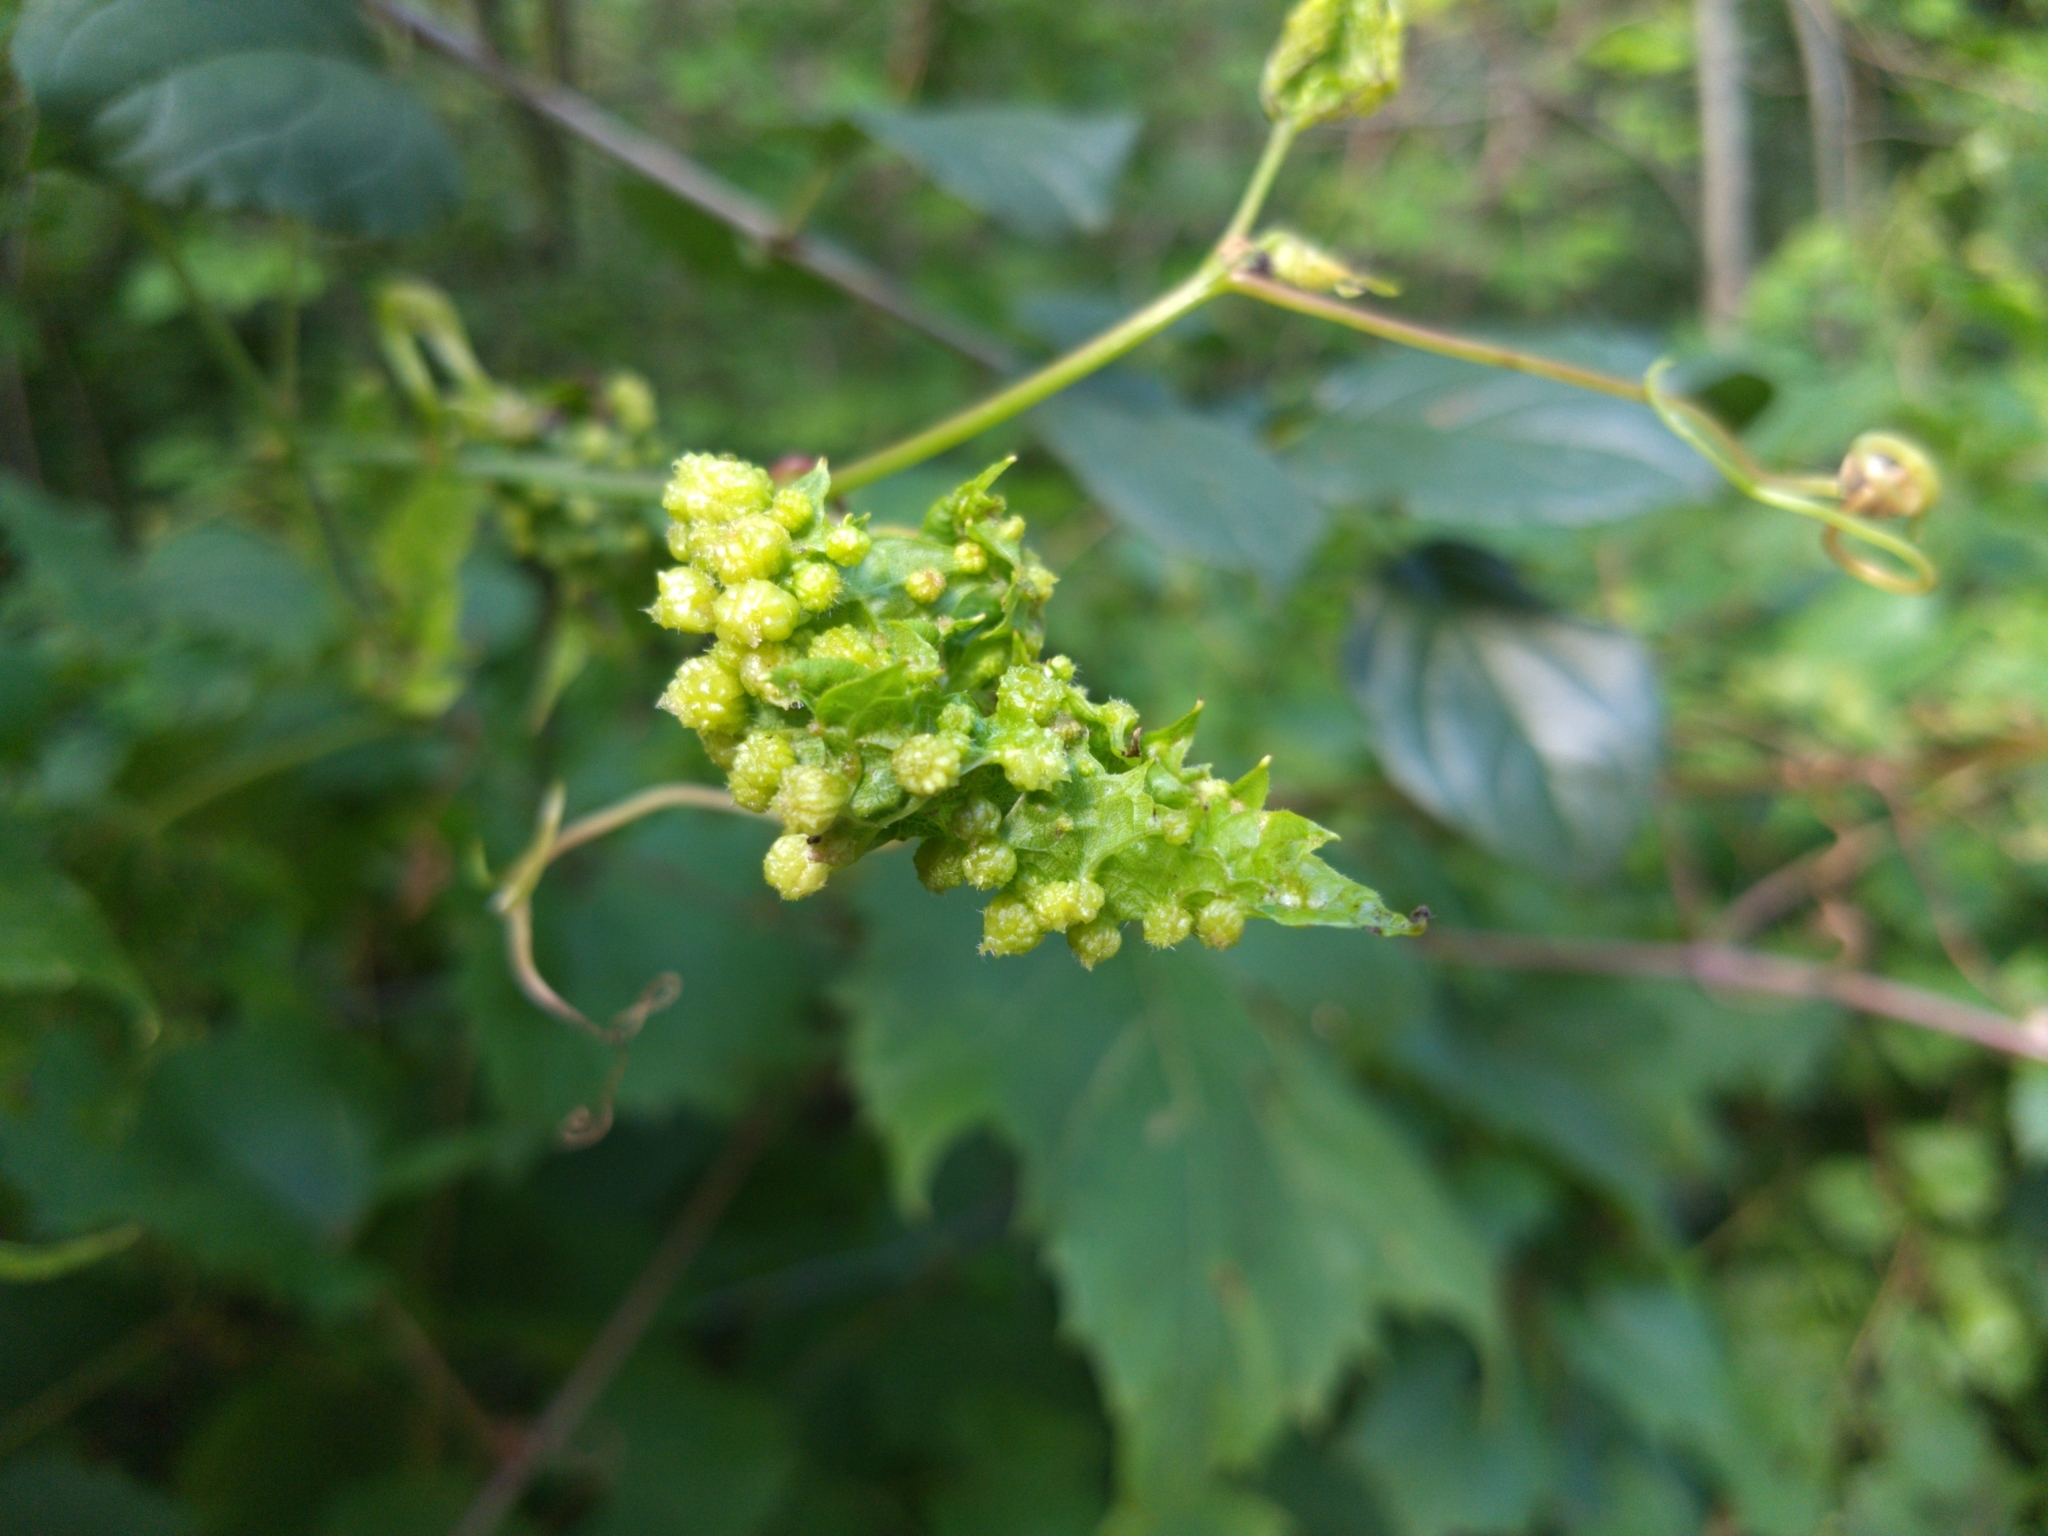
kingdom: Animalia
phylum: Arthropoda
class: Insecta
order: Hemiptera
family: Phylloxeridae
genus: Daktulosphaira
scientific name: Daktulosphaira vitifoliae
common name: Grape phylloxera
